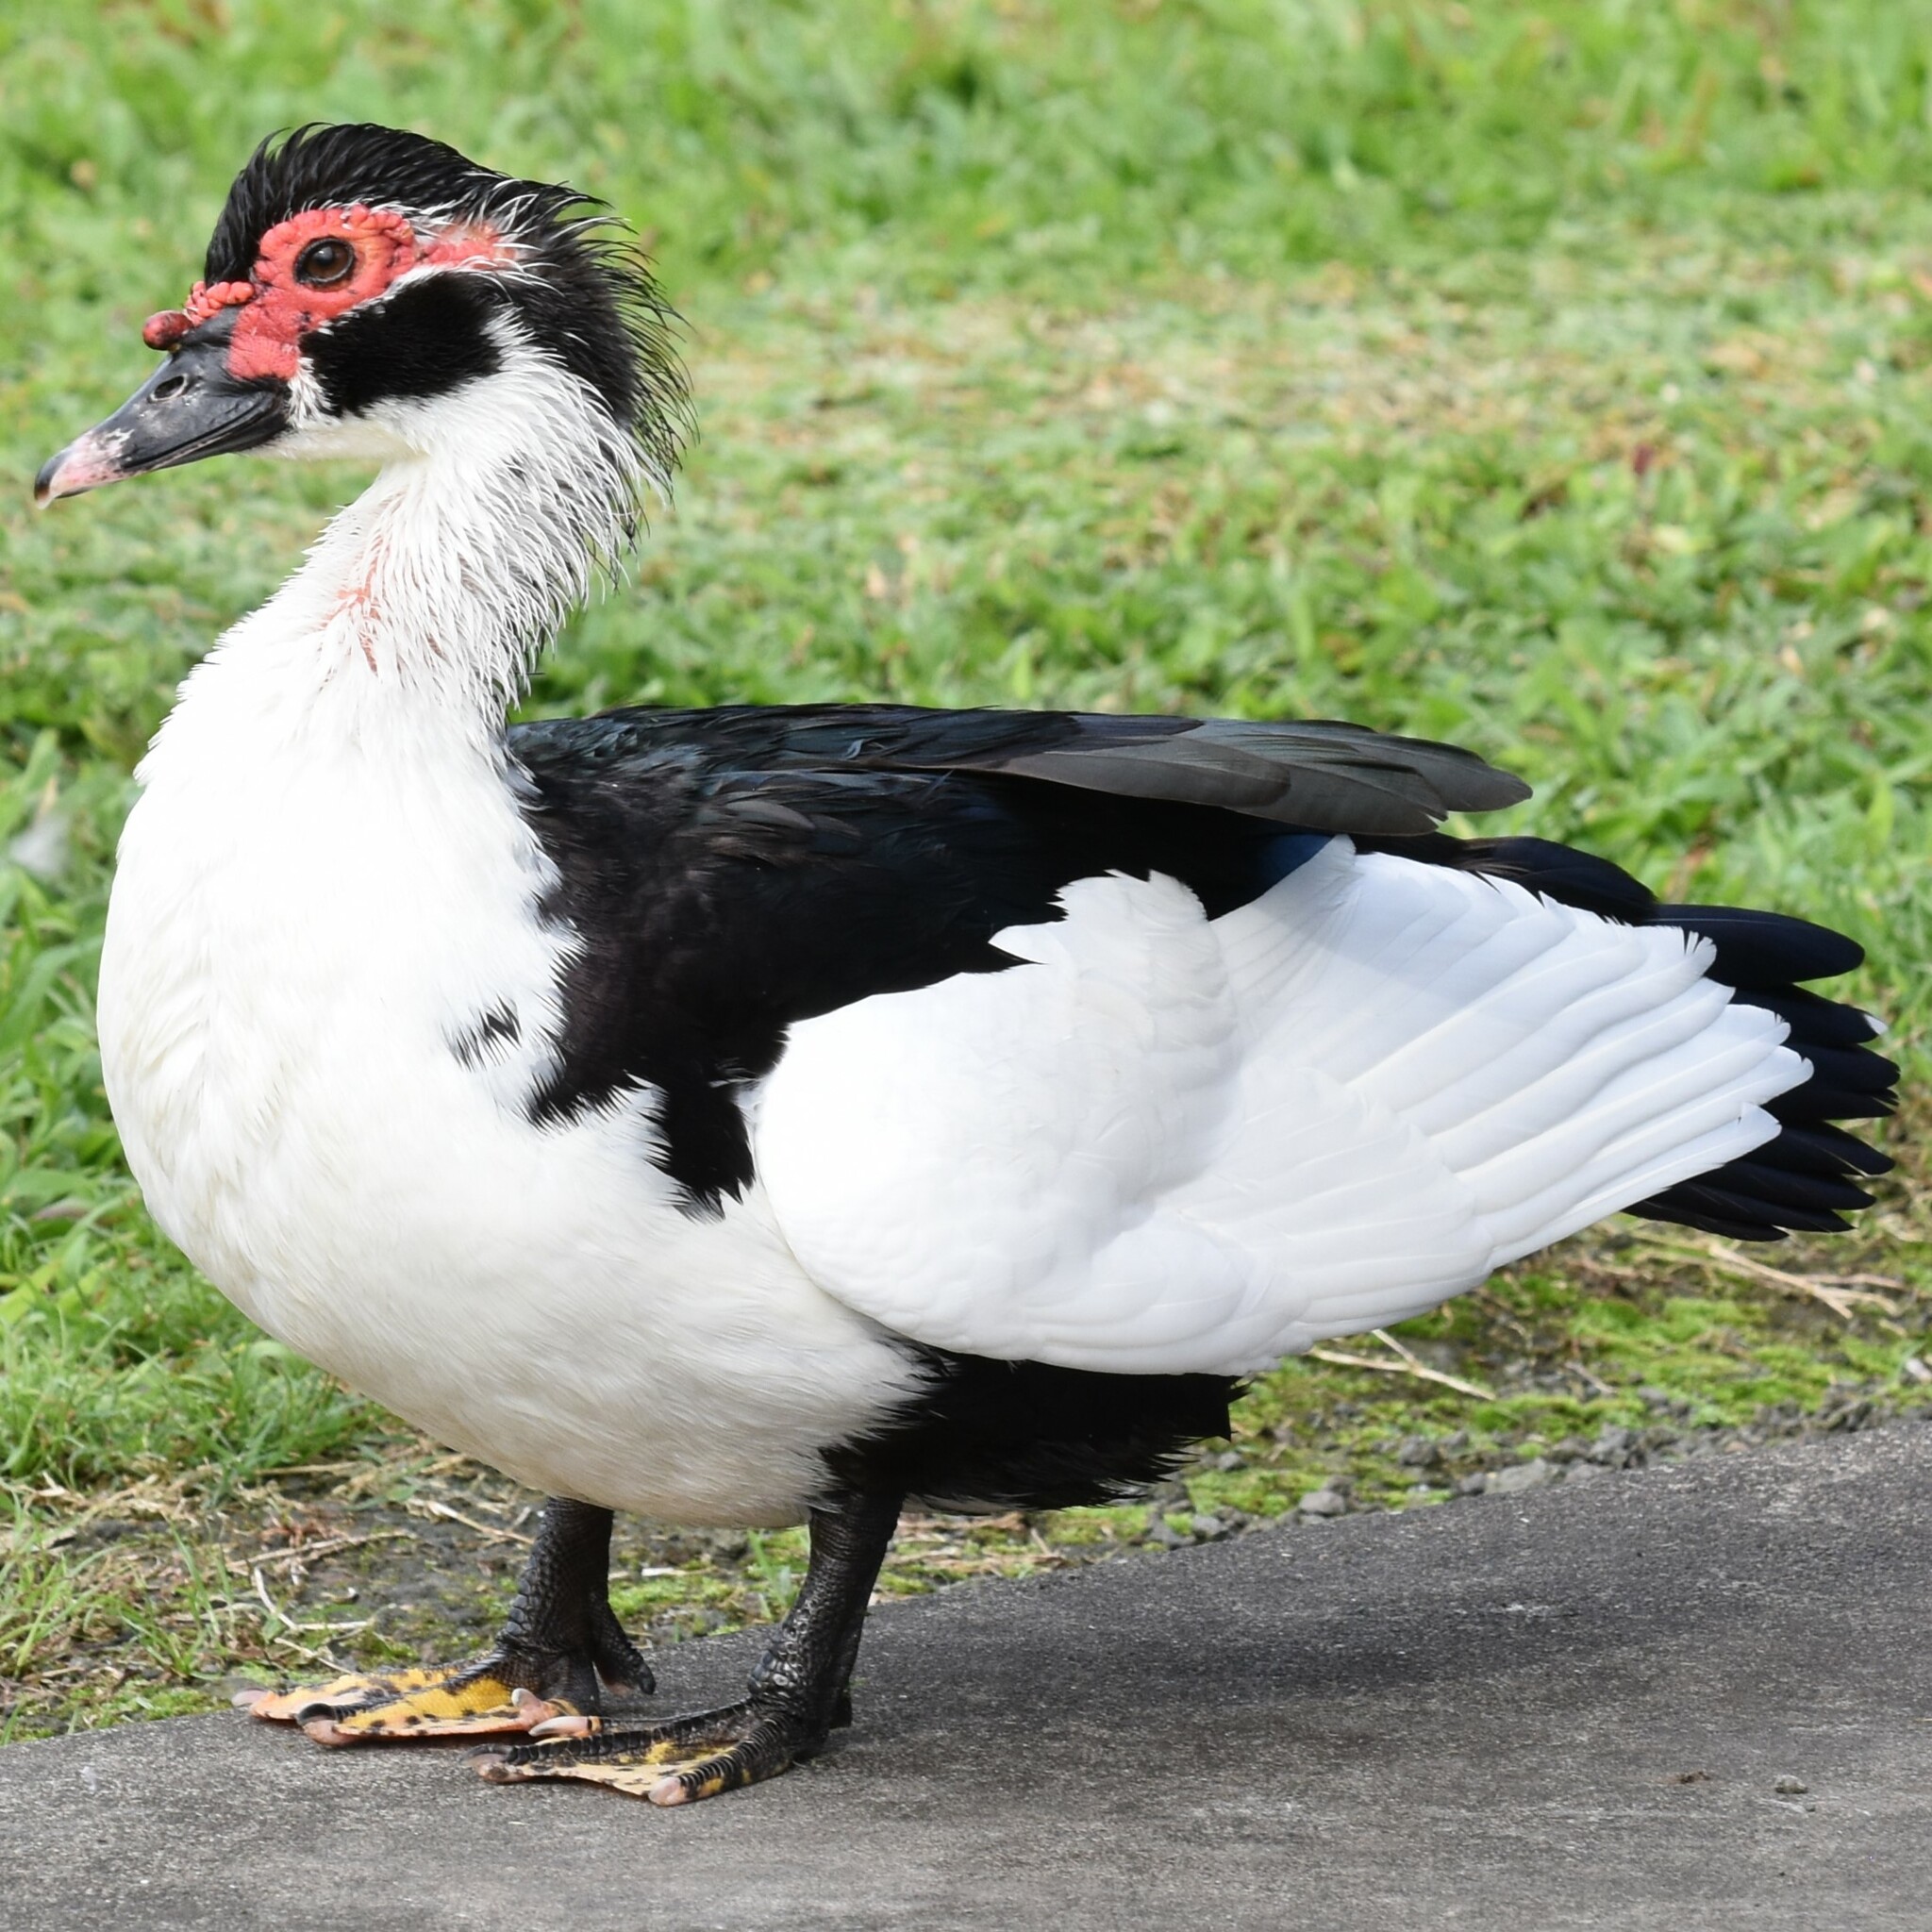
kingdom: Animalia
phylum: Chordata
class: Aves
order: Anseriformes
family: Anatidae
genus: Cairina
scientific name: Cairina moschata
